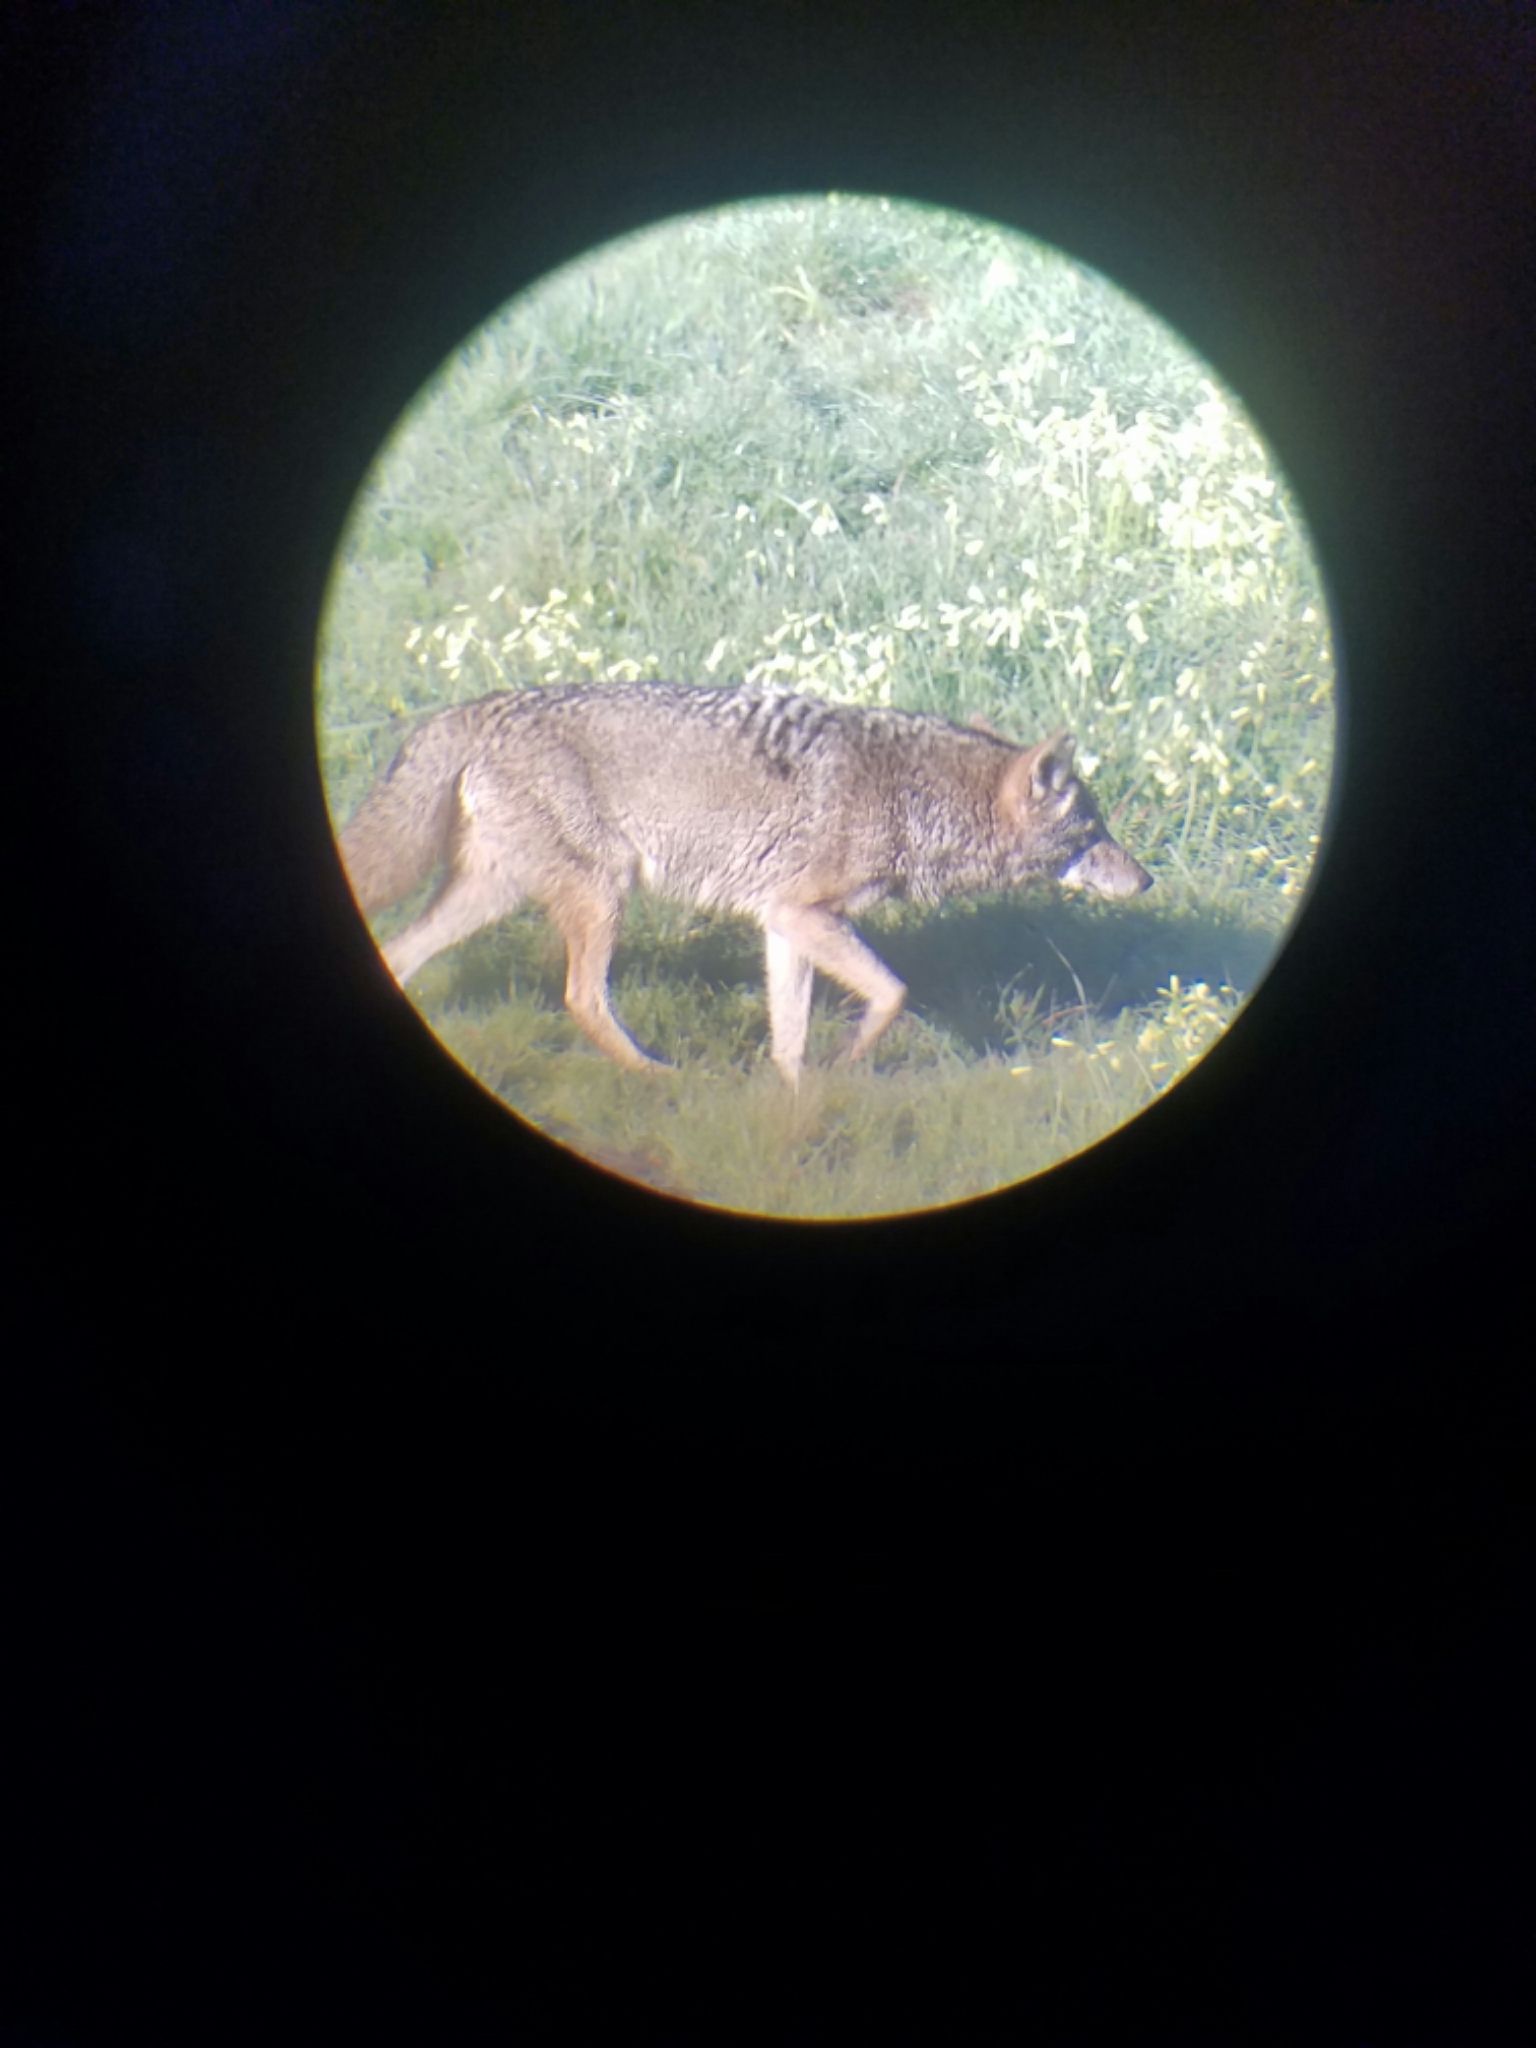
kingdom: Animalia
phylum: Chordata
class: Mammalia
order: Carnivora
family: Canidae
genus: Canis
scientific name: Canis latrans
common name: Coyote
